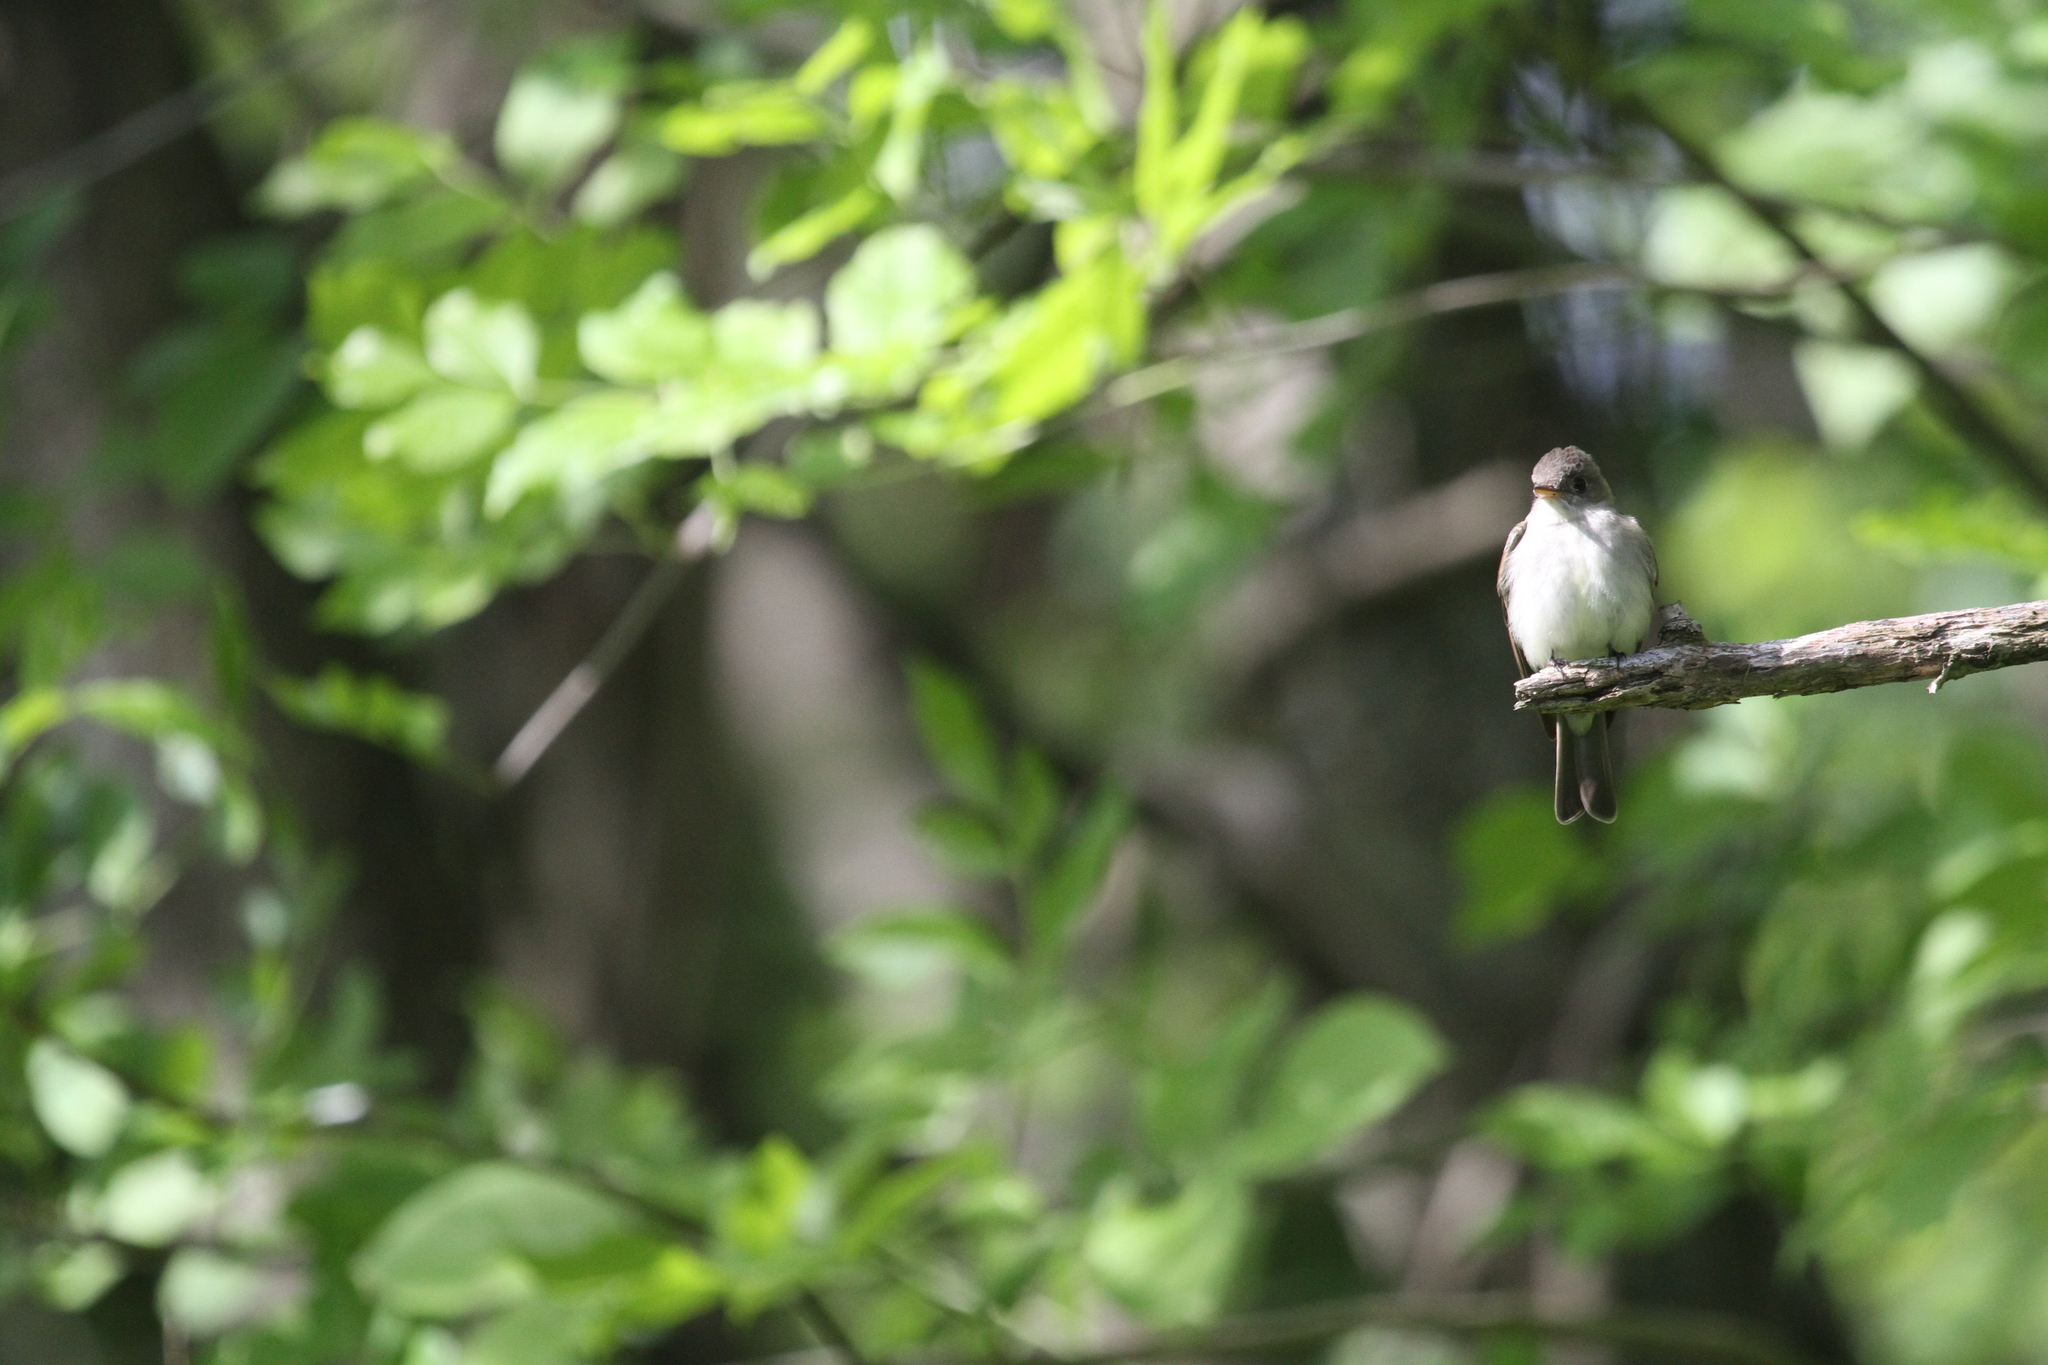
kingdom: Animalia
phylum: Chordata
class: Aves
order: Passeriformes
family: Tyrannidae
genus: Contopus
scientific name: Contopus virens
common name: Eastern wood-pewee
